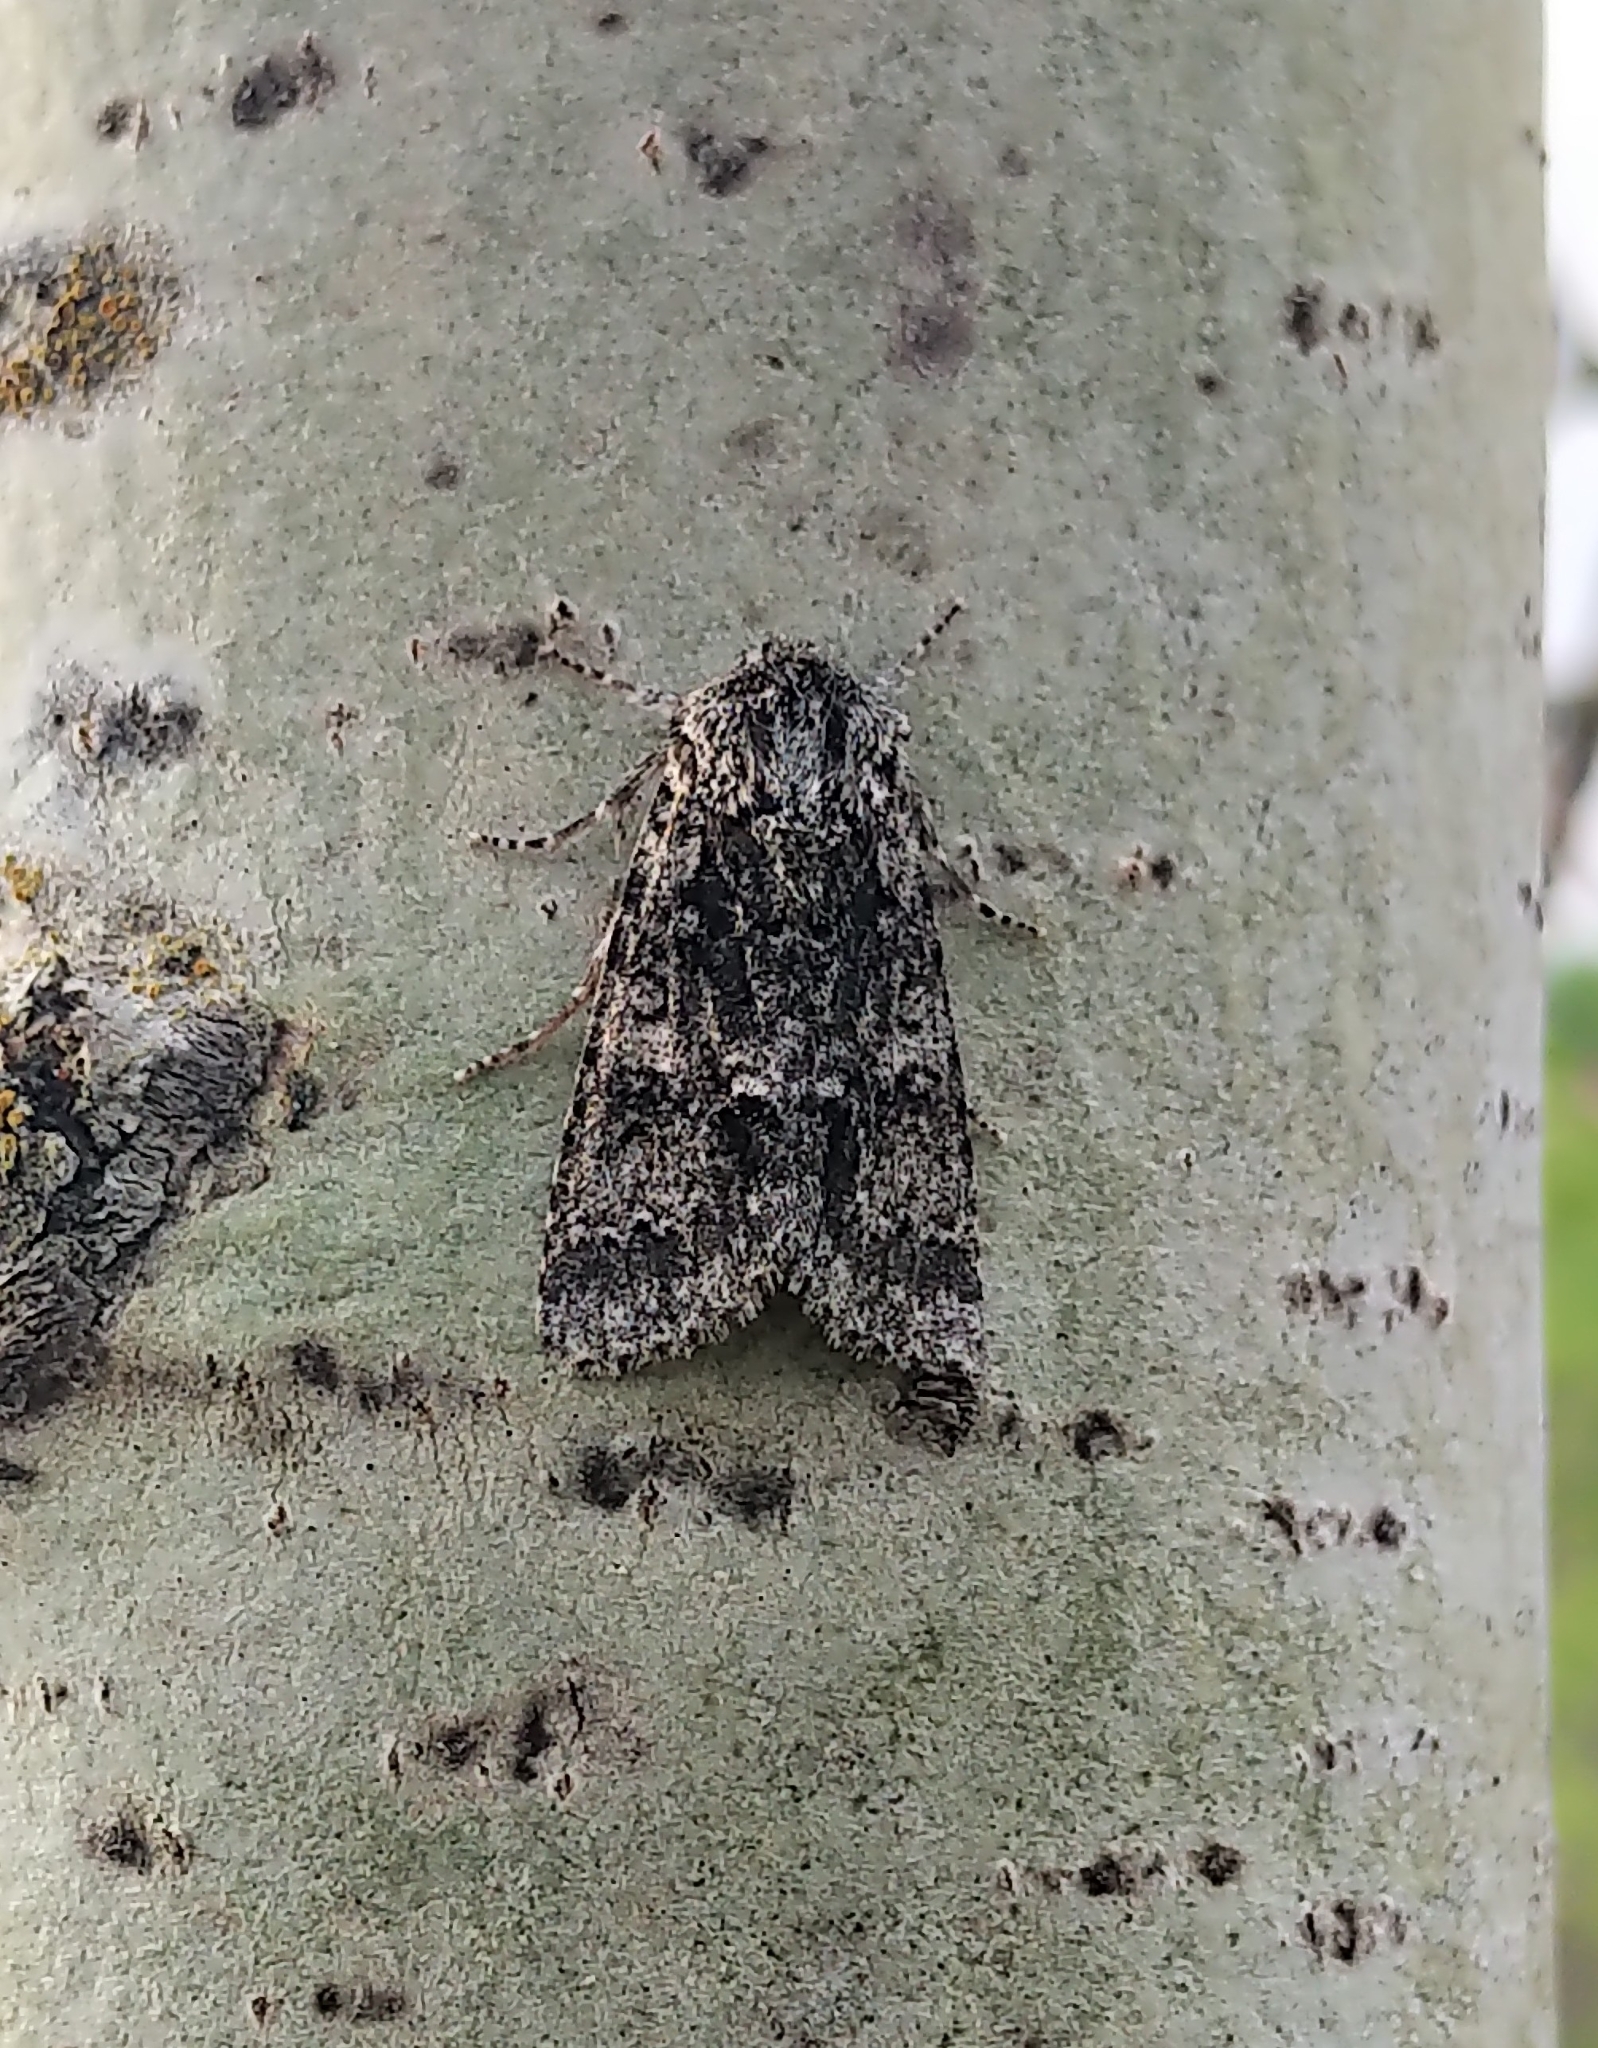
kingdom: Animalia
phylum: Arthropoda
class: Insecta
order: Lepidoptera
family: Noctuidae
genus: Acronicta
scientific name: Acronicta impressa
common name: Impressed dagger
